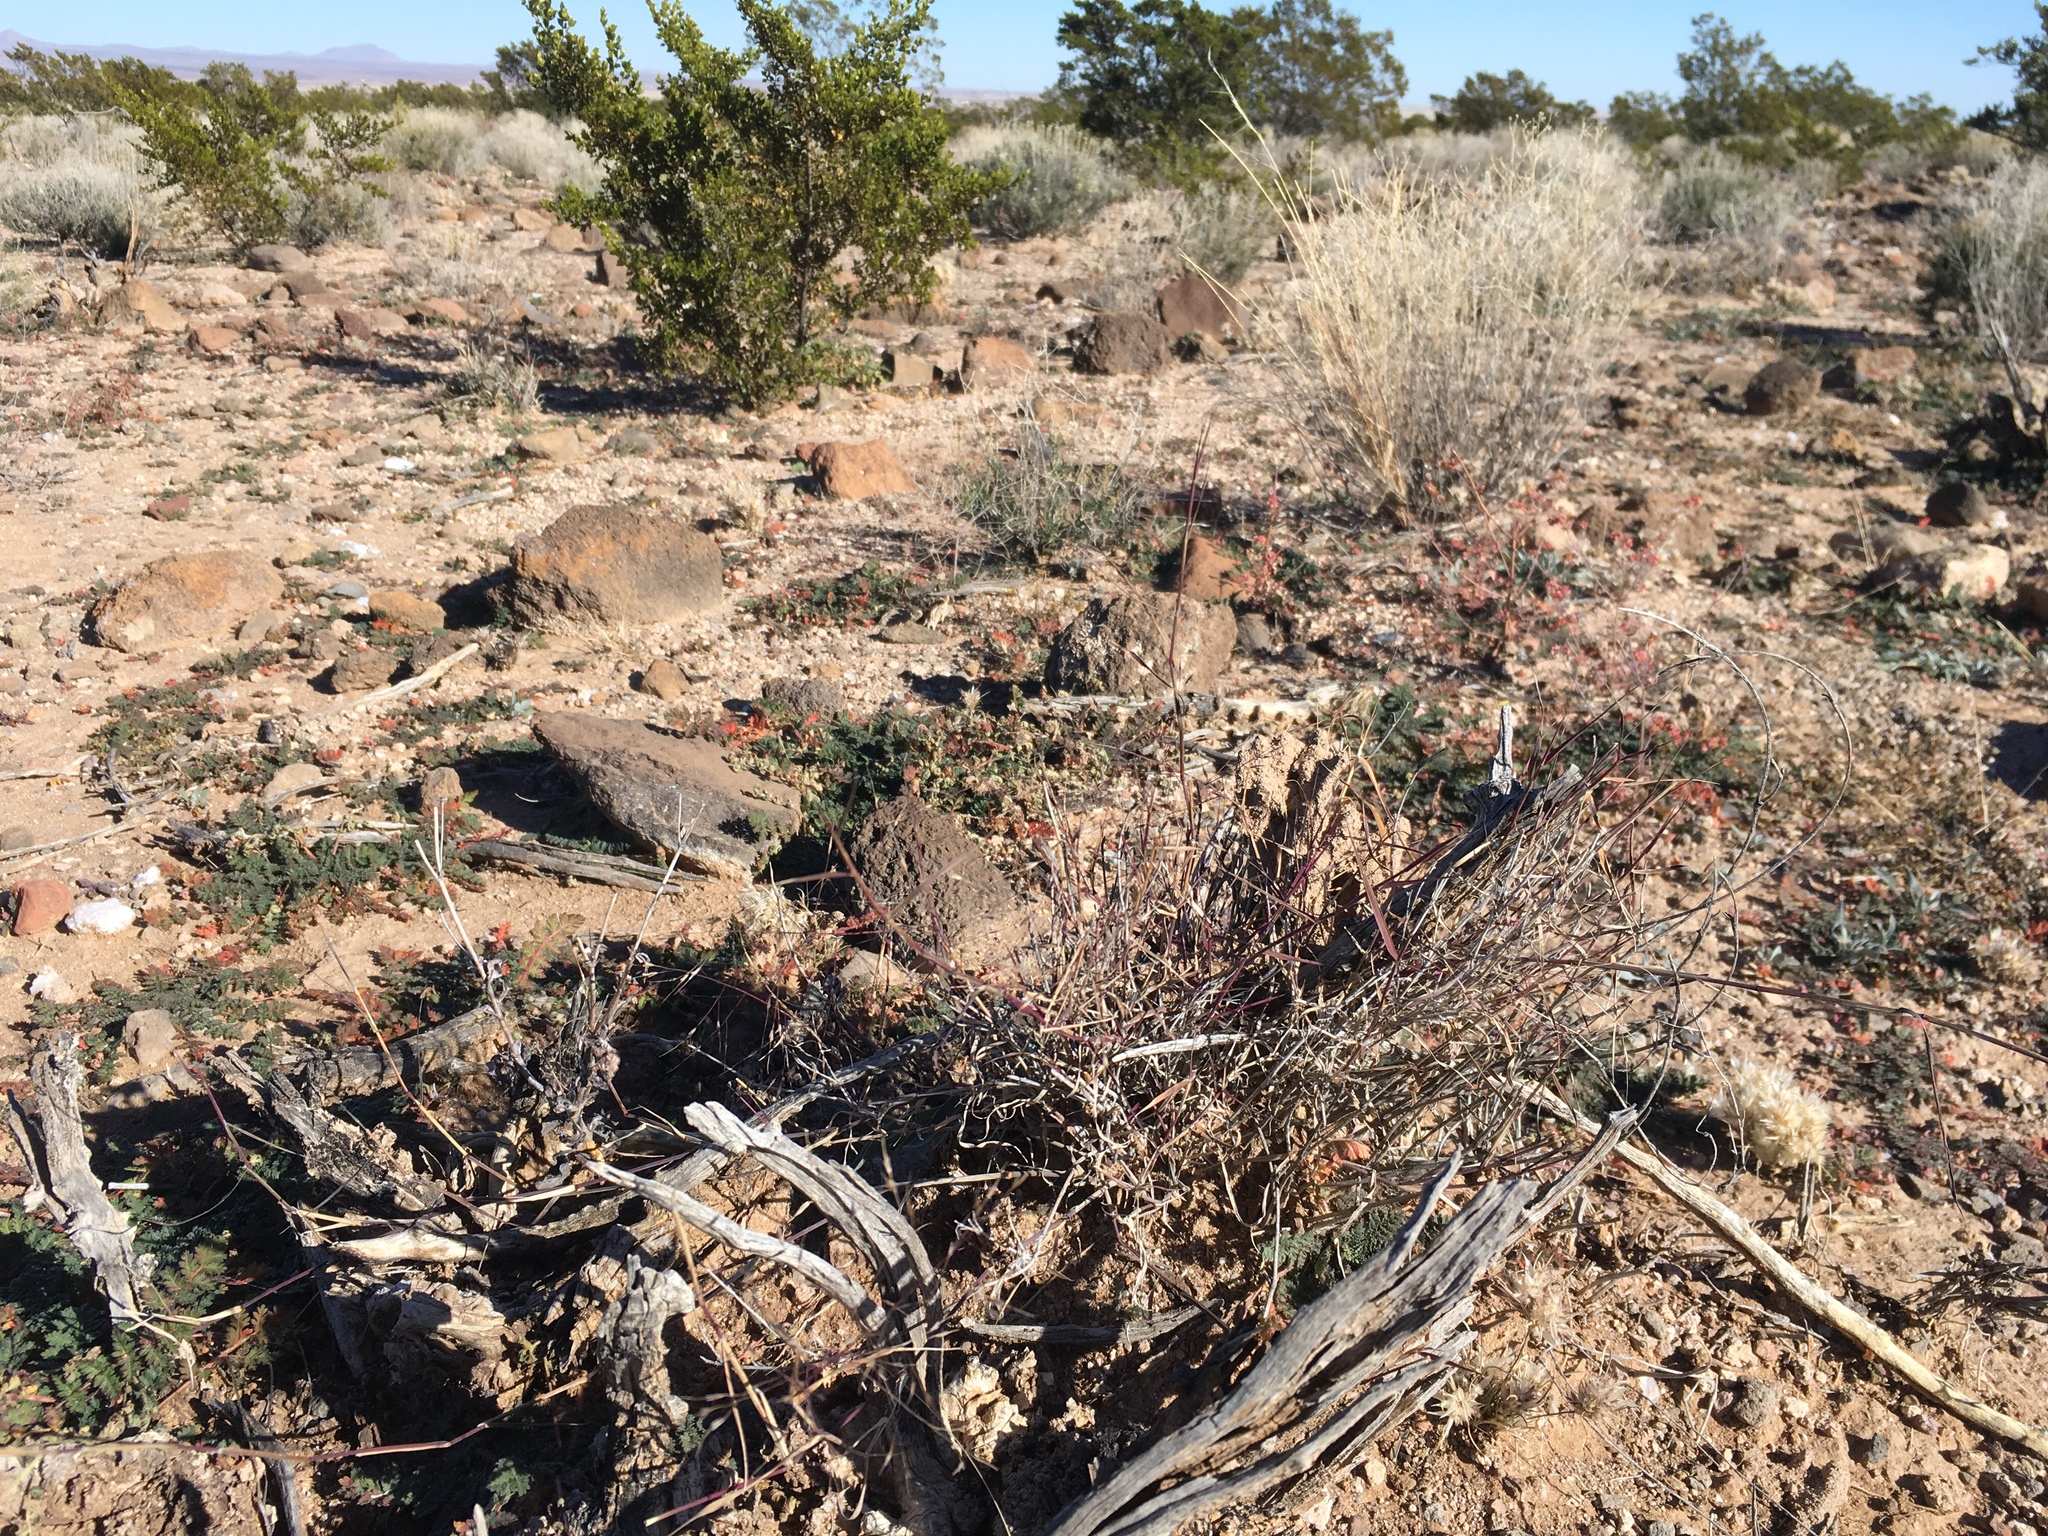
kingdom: Plantae
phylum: Tracheophyta
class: Liliopsida
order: Poales
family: Poaceae
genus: Muhlenbergia
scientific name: Muhlenbergia porteri
